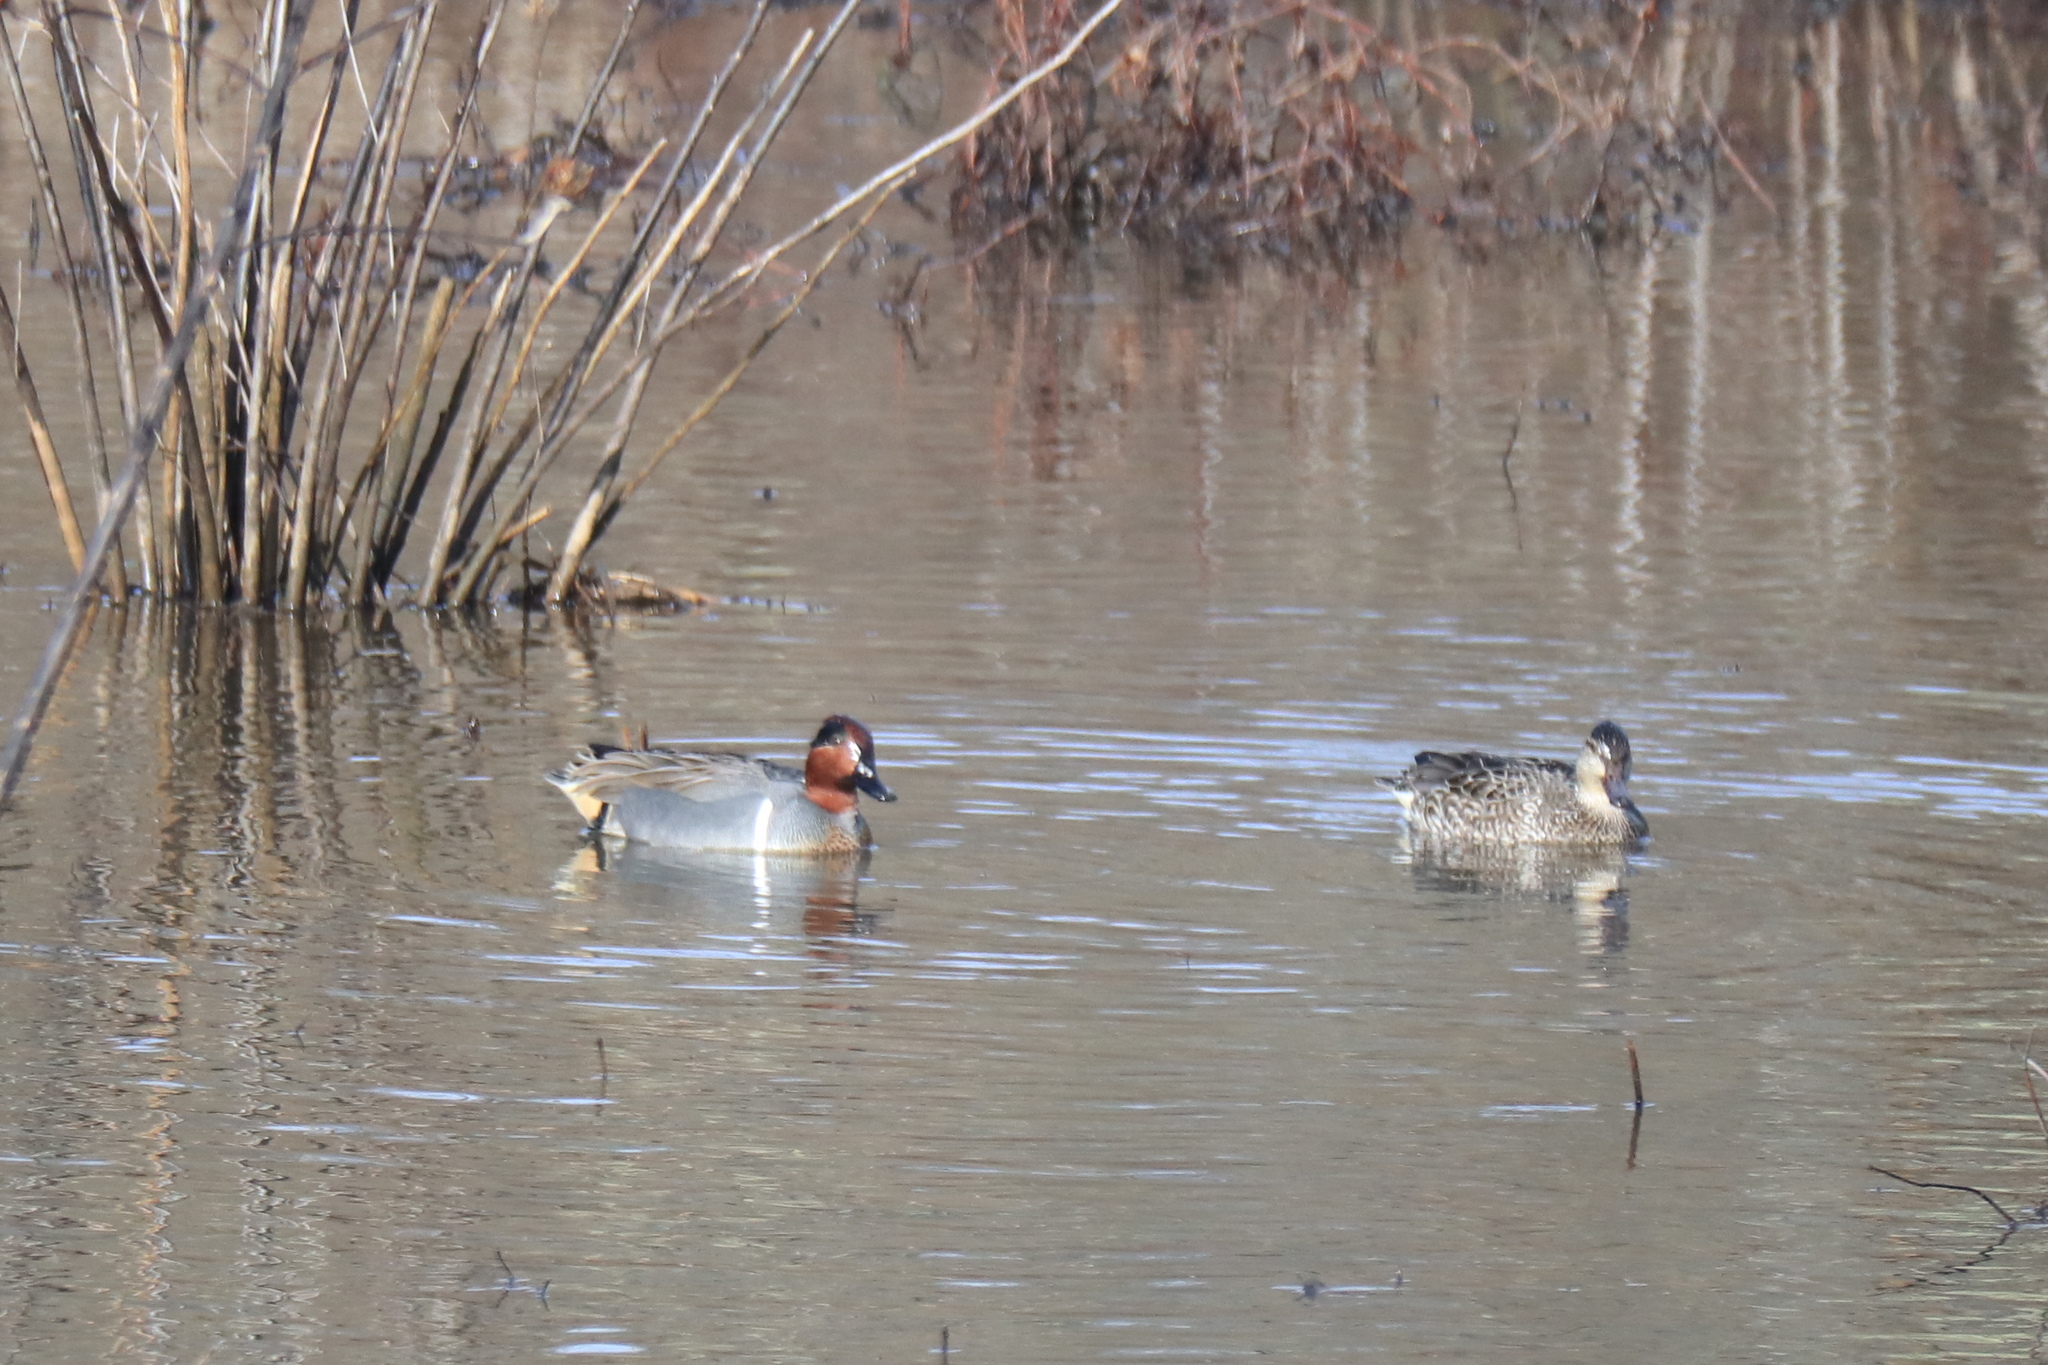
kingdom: Animalia
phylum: Chordata
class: Aves
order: Anseriformes
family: Anatidae
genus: Anas
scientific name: Anas carolinensis
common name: Green-winged teal
